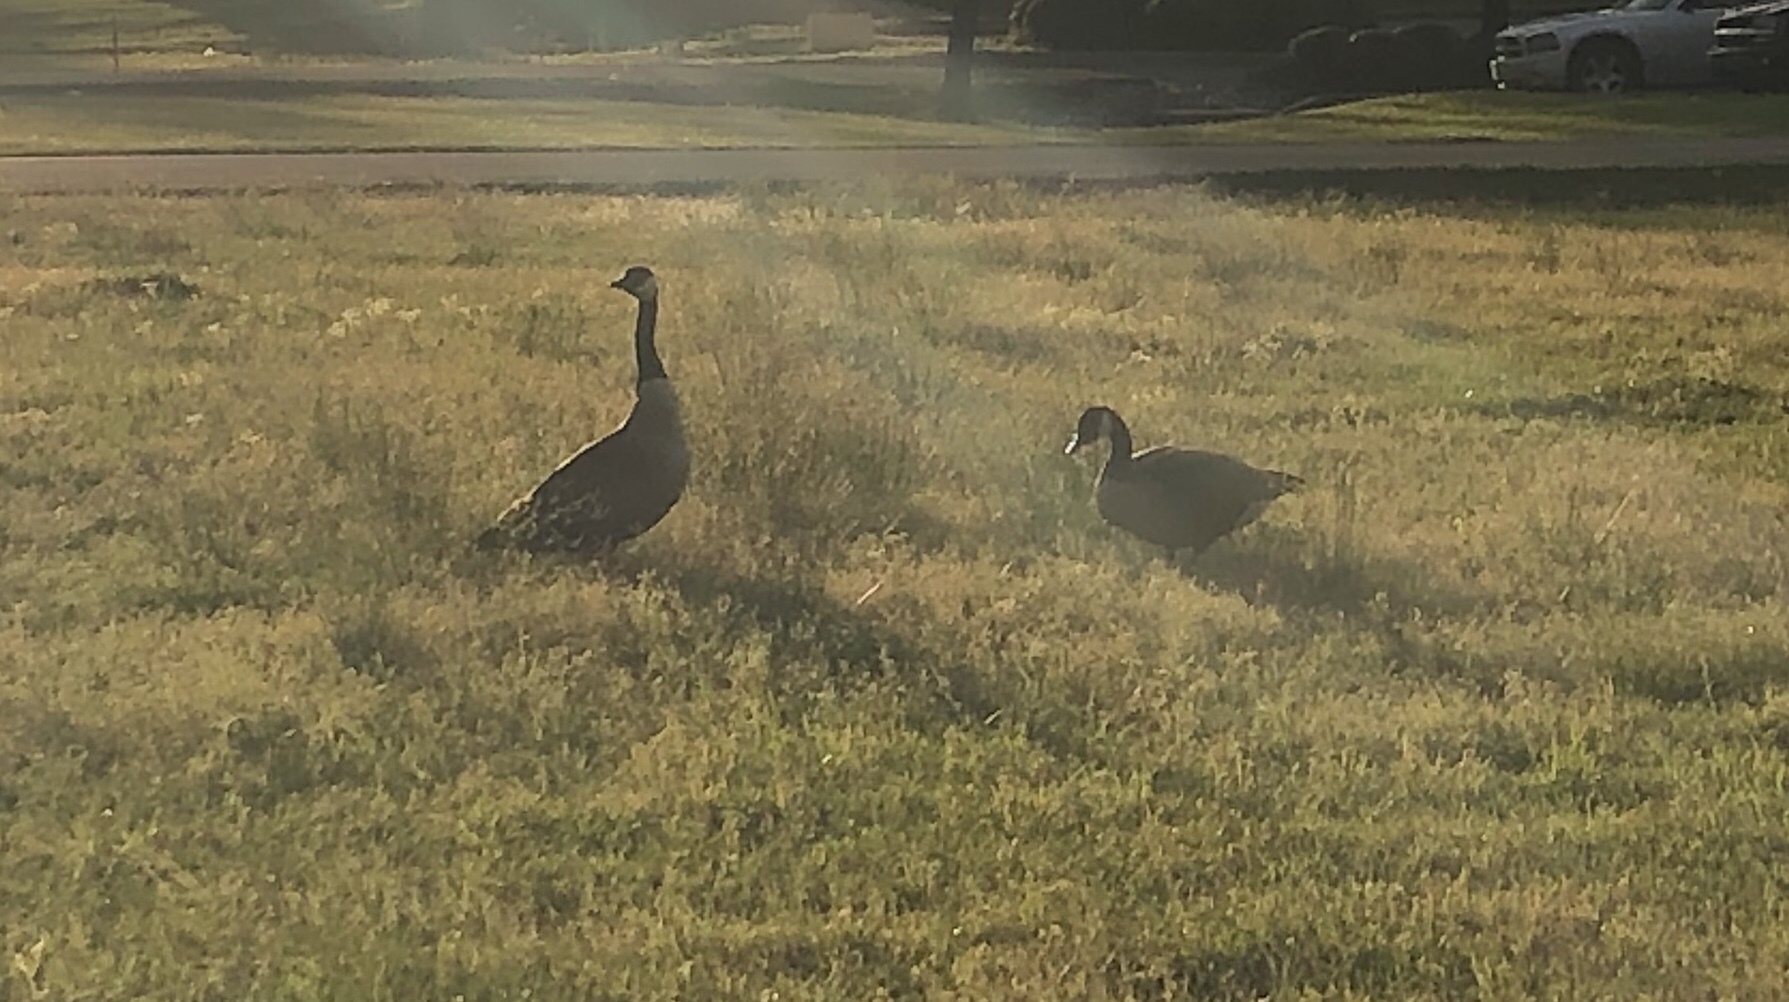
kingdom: Animalia
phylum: Chordata
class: Aves
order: Anseriformes
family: Anatidae
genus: Branta
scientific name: Branta canadensis
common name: Canada goose
